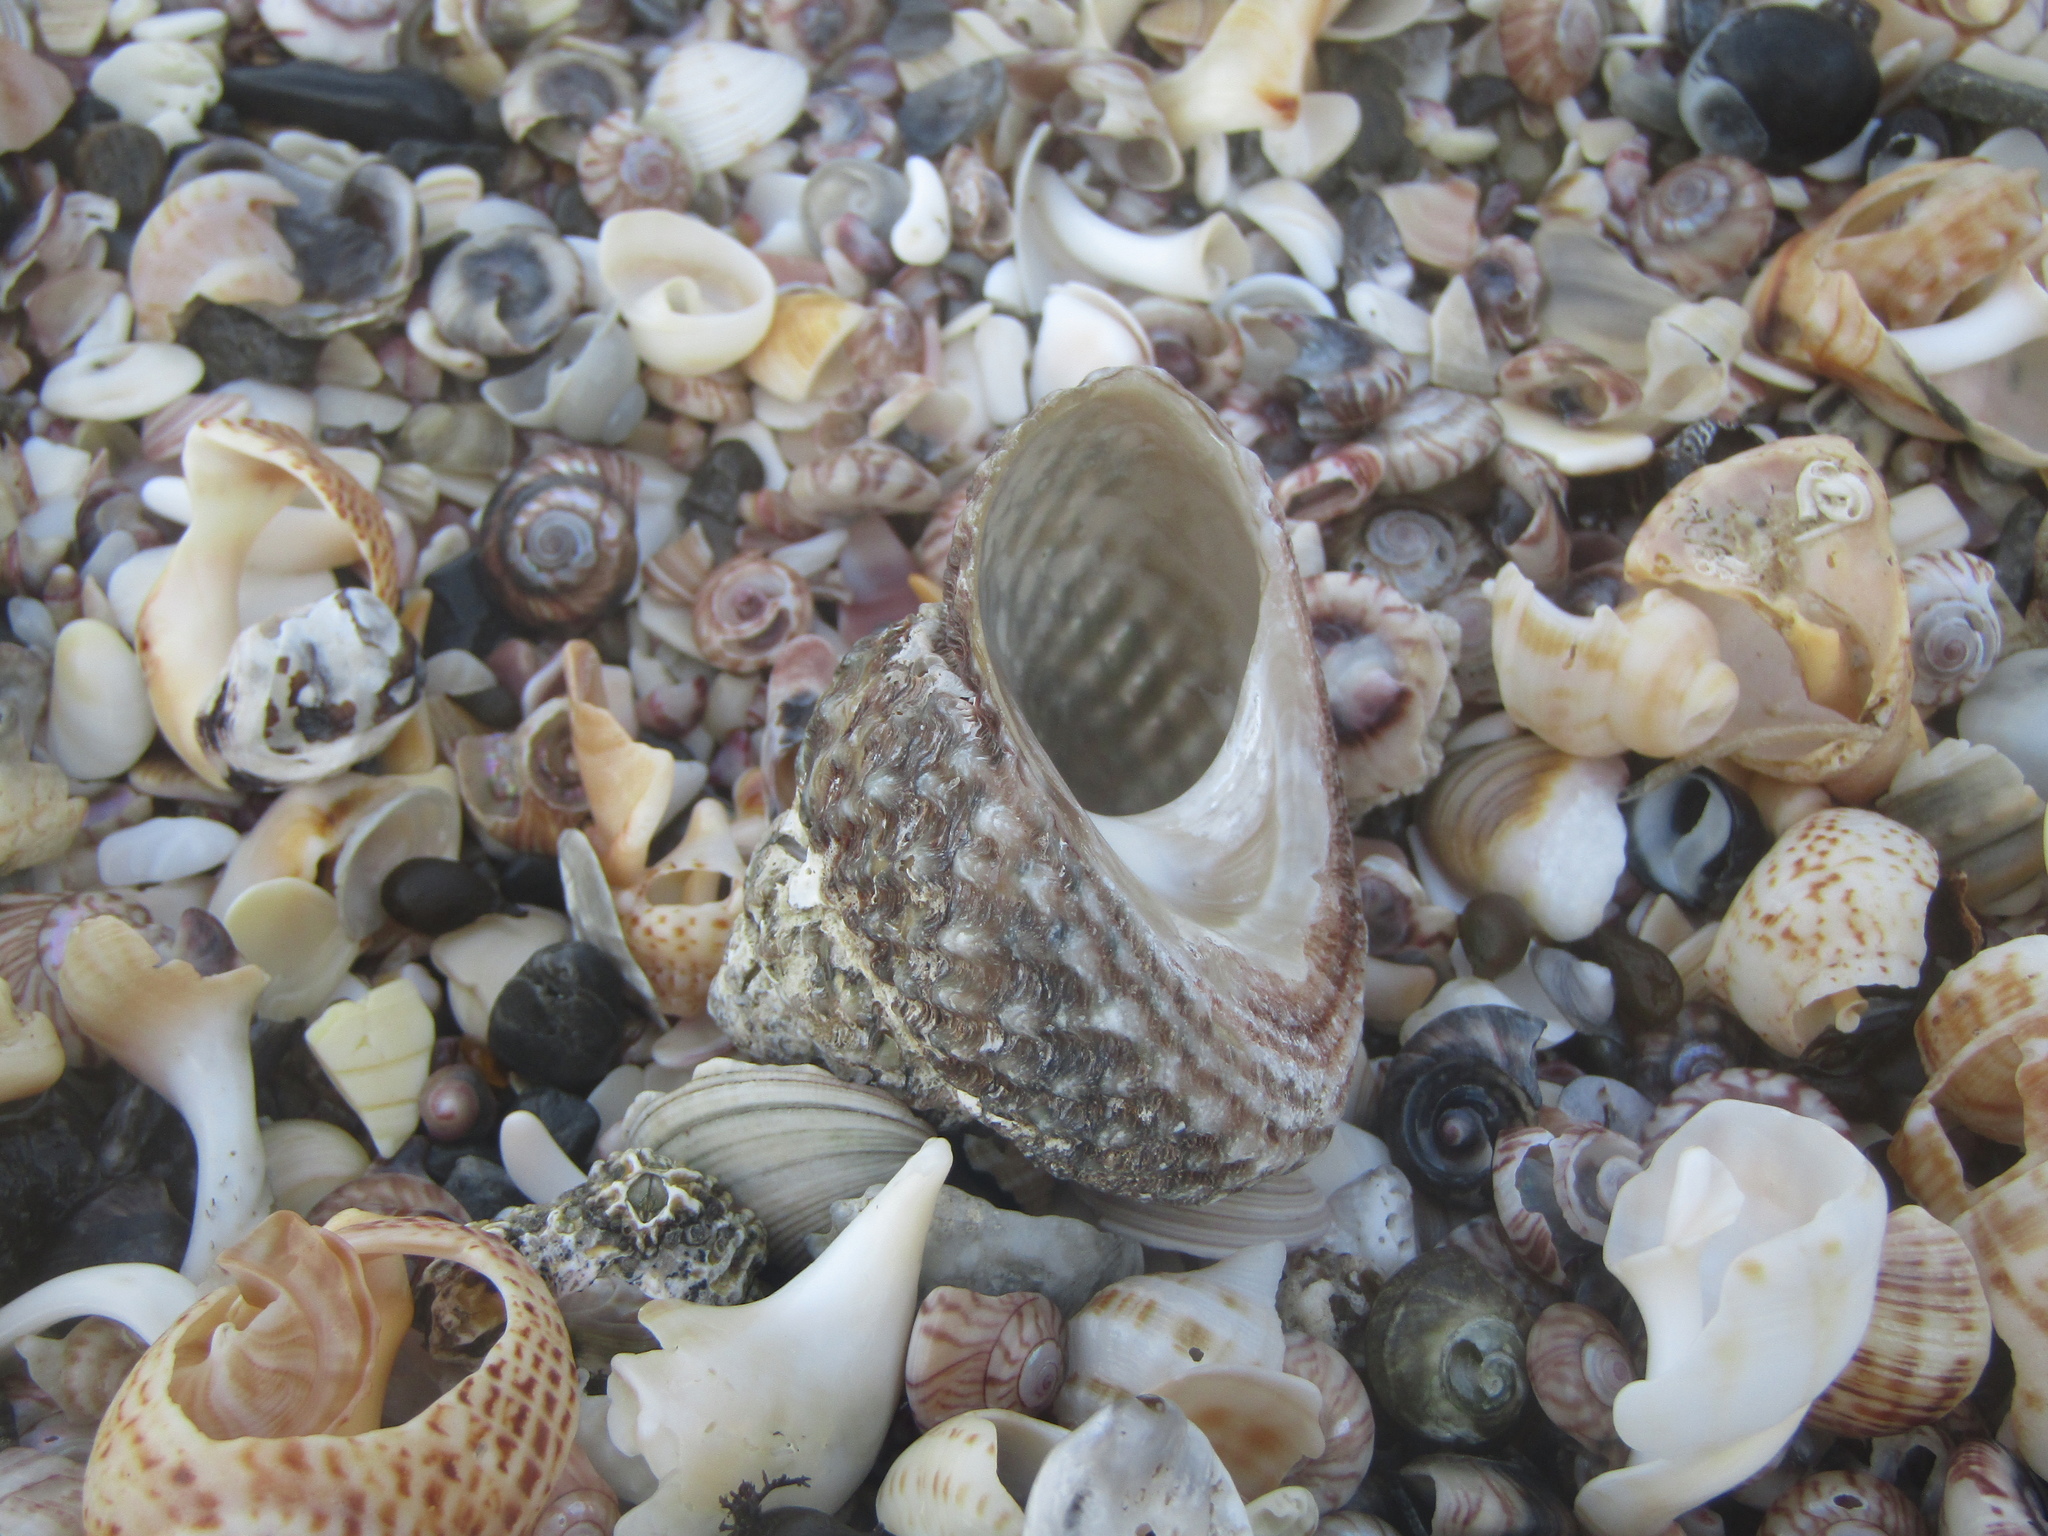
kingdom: Animalia
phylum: Mollusca
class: Gastropoda
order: Trochida
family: Turbinidae
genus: Cookia
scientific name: Cookia sulcata
